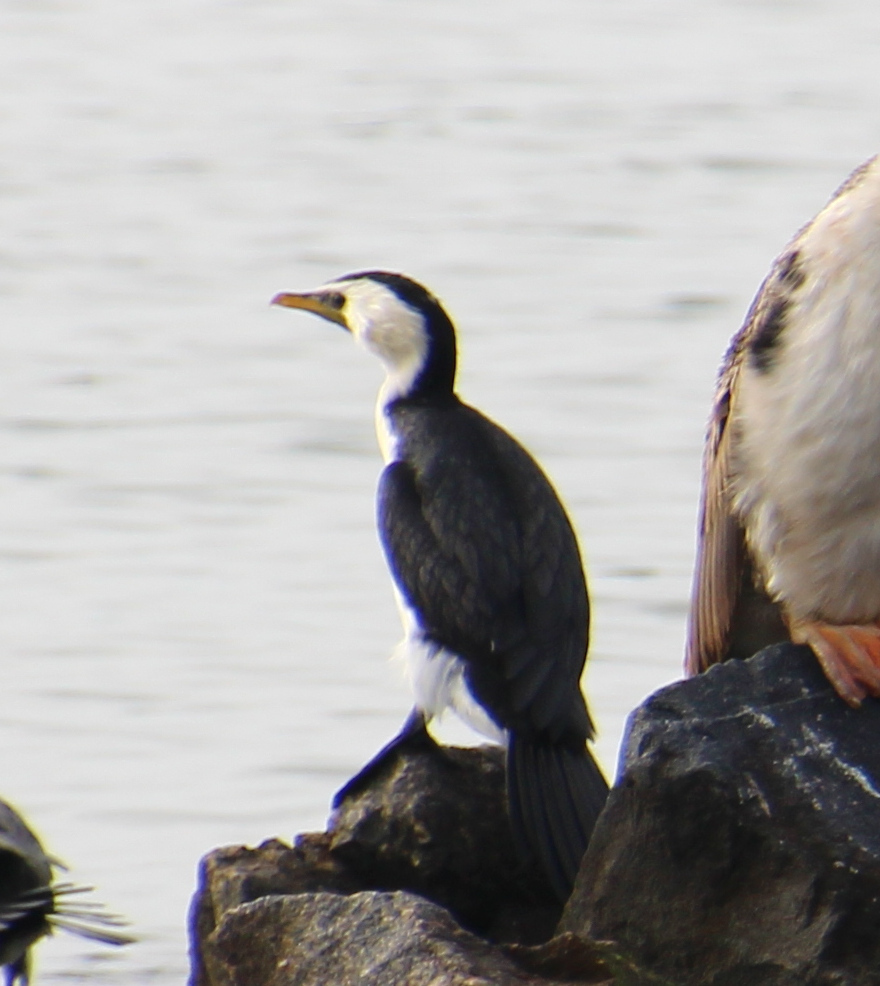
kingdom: Animalia
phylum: Chordata
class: Aves
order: Suliformes
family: Phalacrocoracidae
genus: Microcarbo
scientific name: Microcarbo melanoleucos
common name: Little pied cormorant
